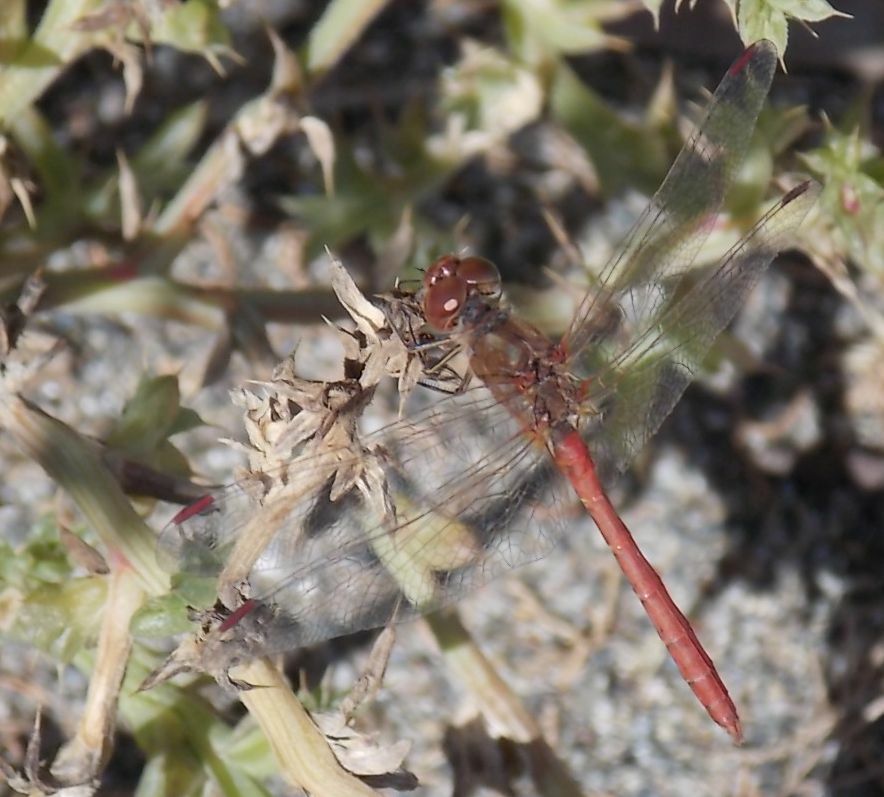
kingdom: Animalia
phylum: Arthropoda
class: Insecta
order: Odonata
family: Libellulidae
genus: Sympetrum
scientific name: Sympetrum meridionale
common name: Southern darter
